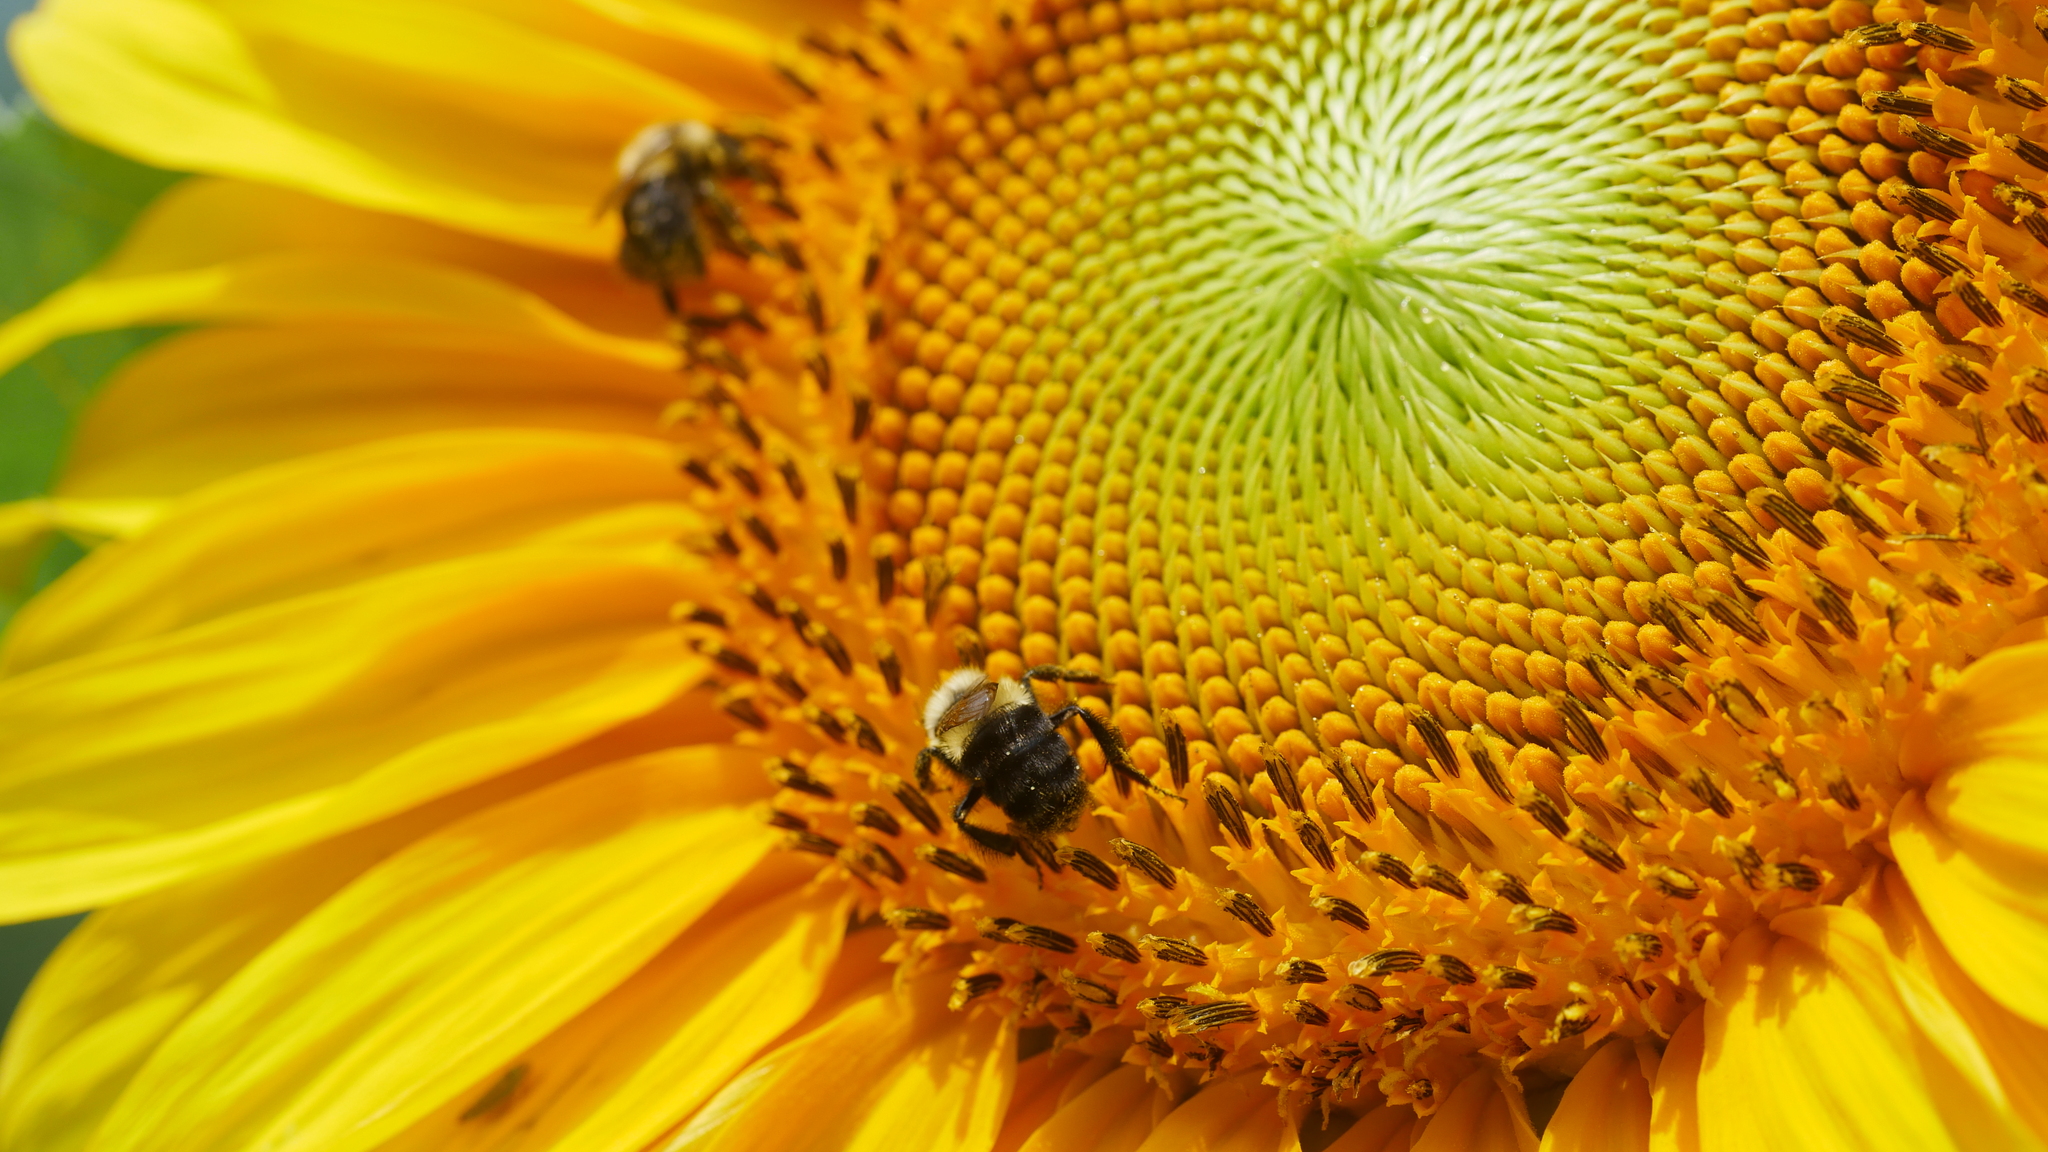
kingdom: Animalia
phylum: Arthropoda
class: Insecta
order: Hymenoptera
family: Apidae
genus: Bombus
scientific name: Bombus impatiens
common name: Common eastern bumble bee
